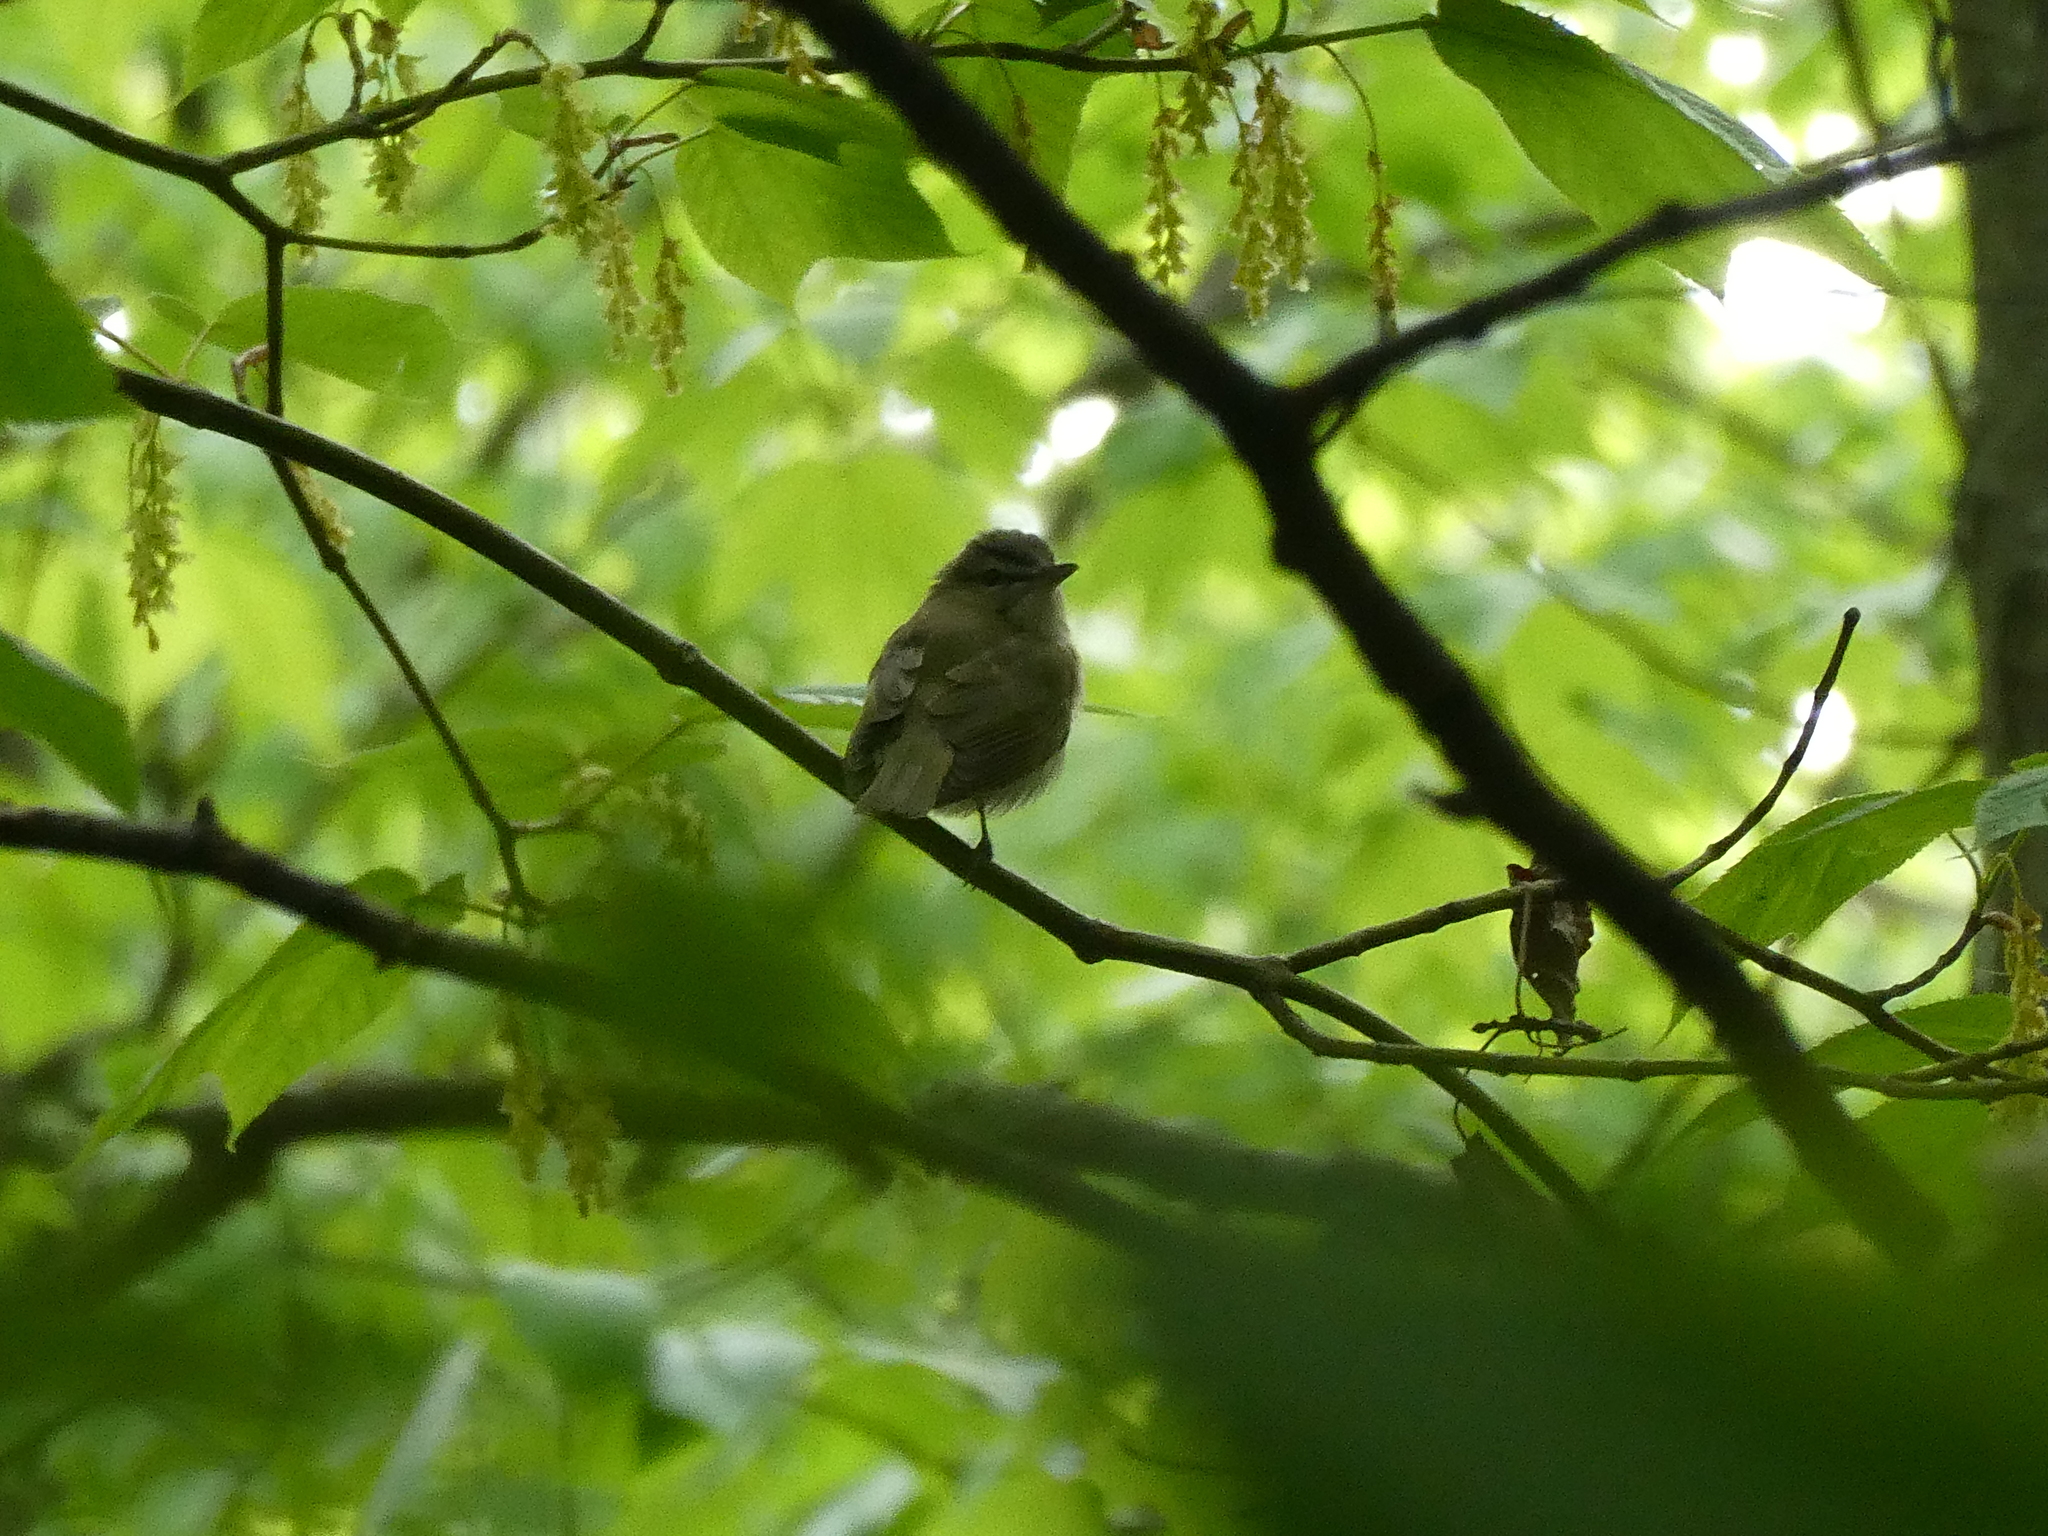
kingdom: Animalia
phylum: Chordata
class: Aves
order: Passeriformes
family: Vireonidae
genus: Vireo
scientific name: Vireo olivaceus
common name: Red-eyed vireo
